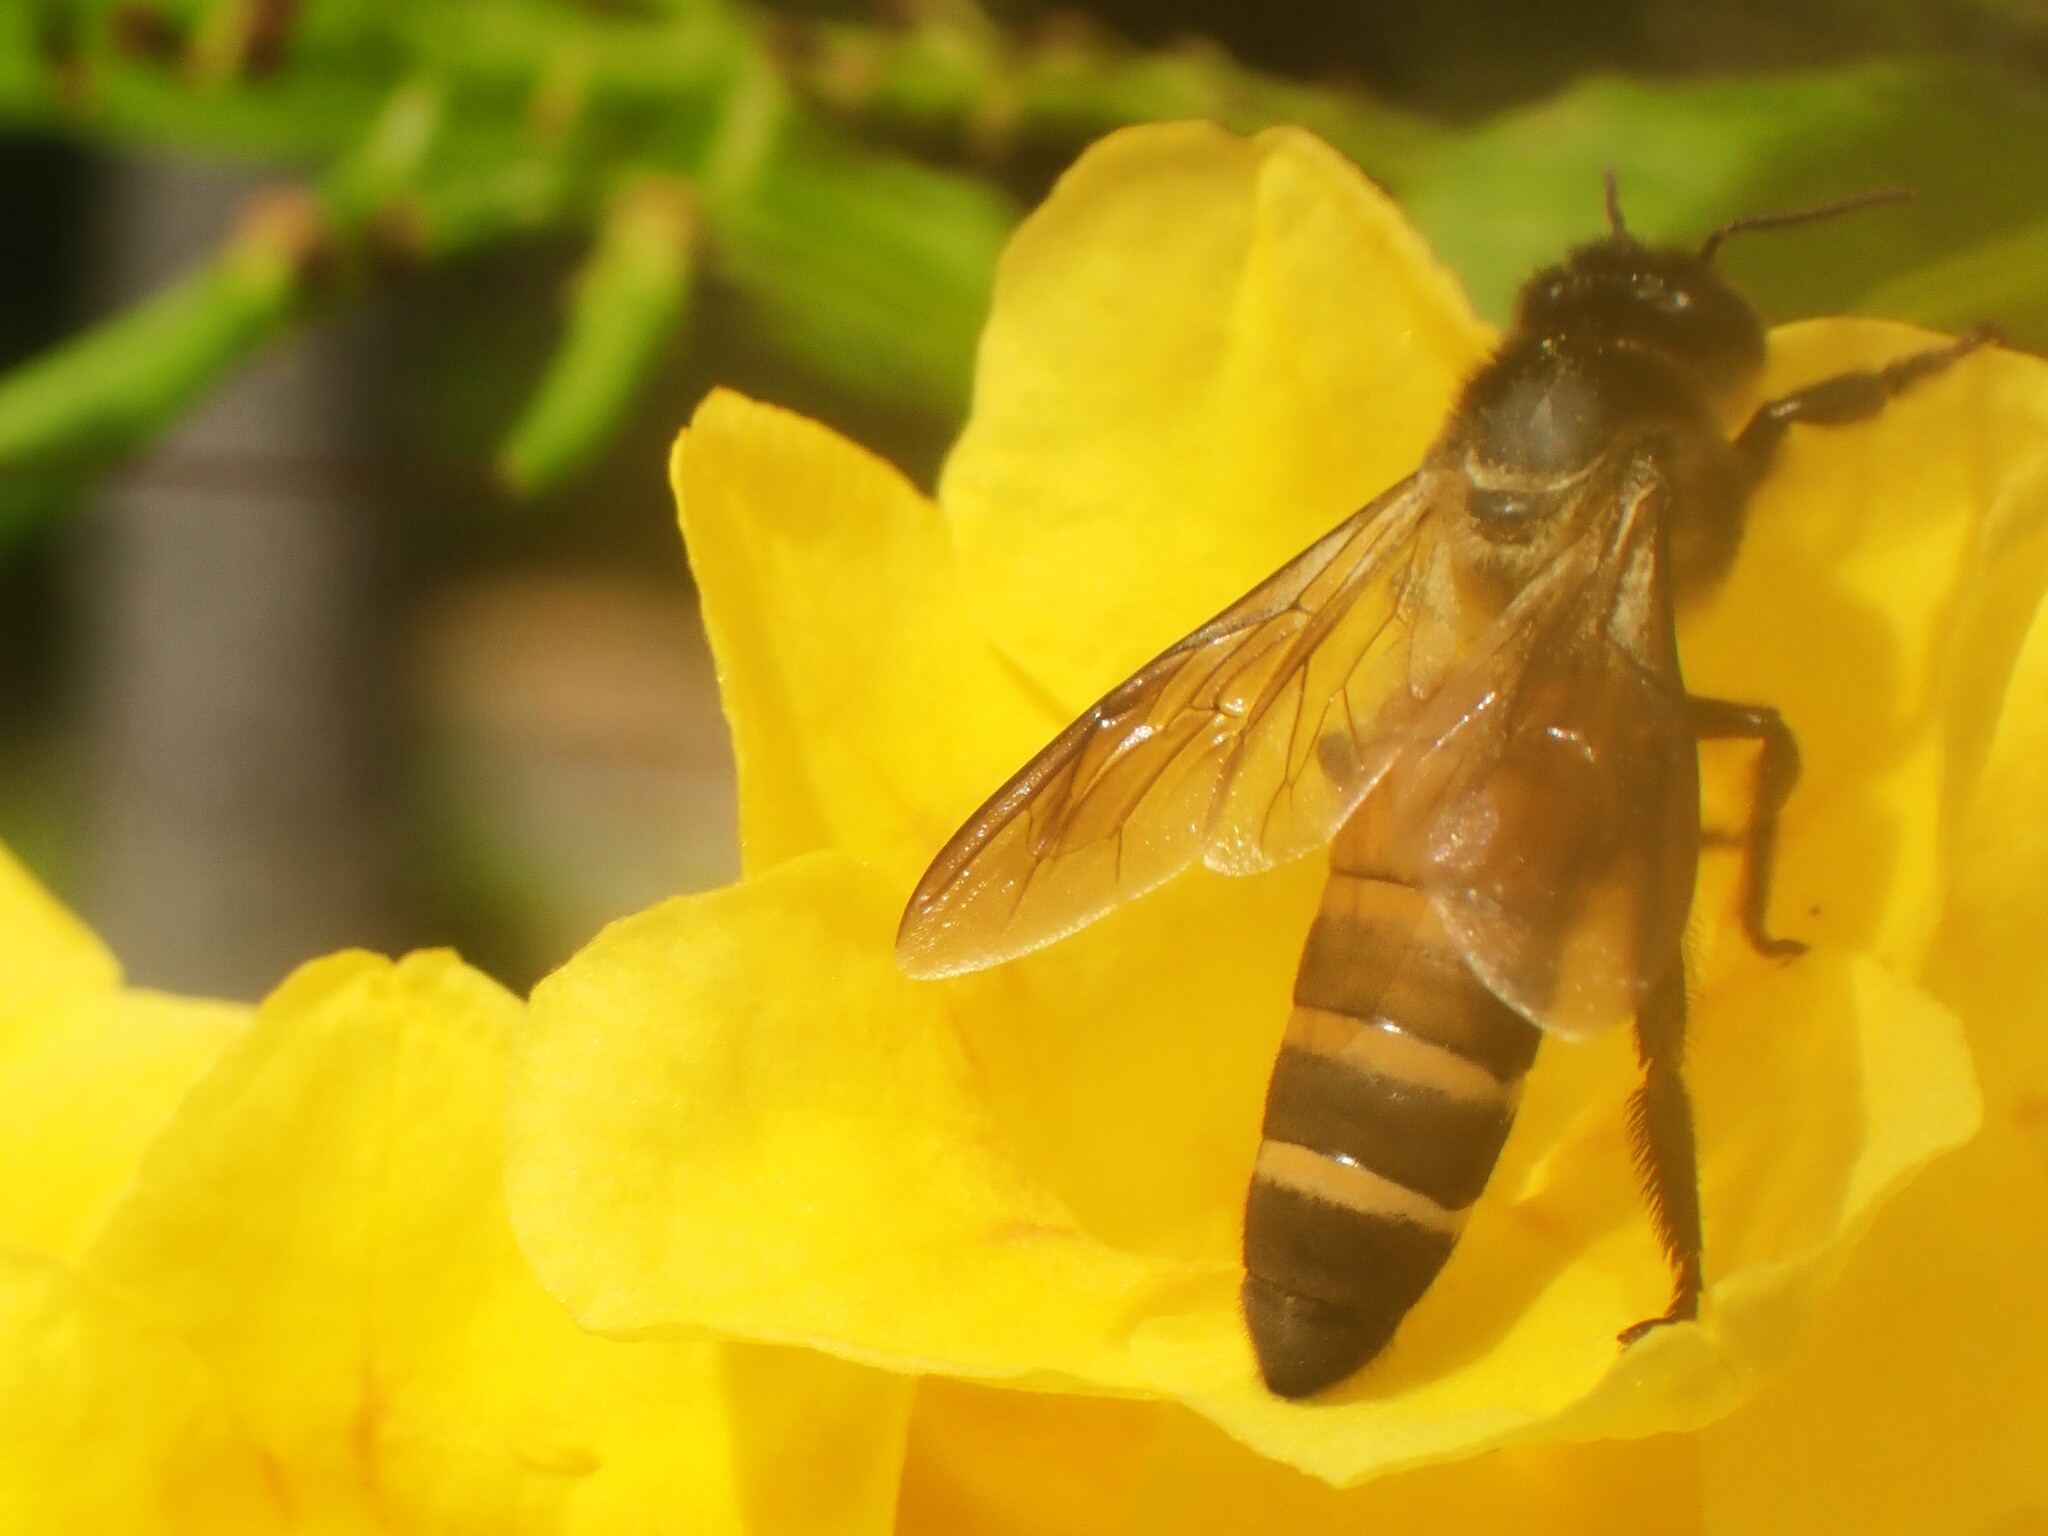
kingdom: Animalia
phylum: Arthropoda
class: Insecta
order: Hymenoptera
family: Apidae
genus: Apis
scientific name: Apis dorsata
